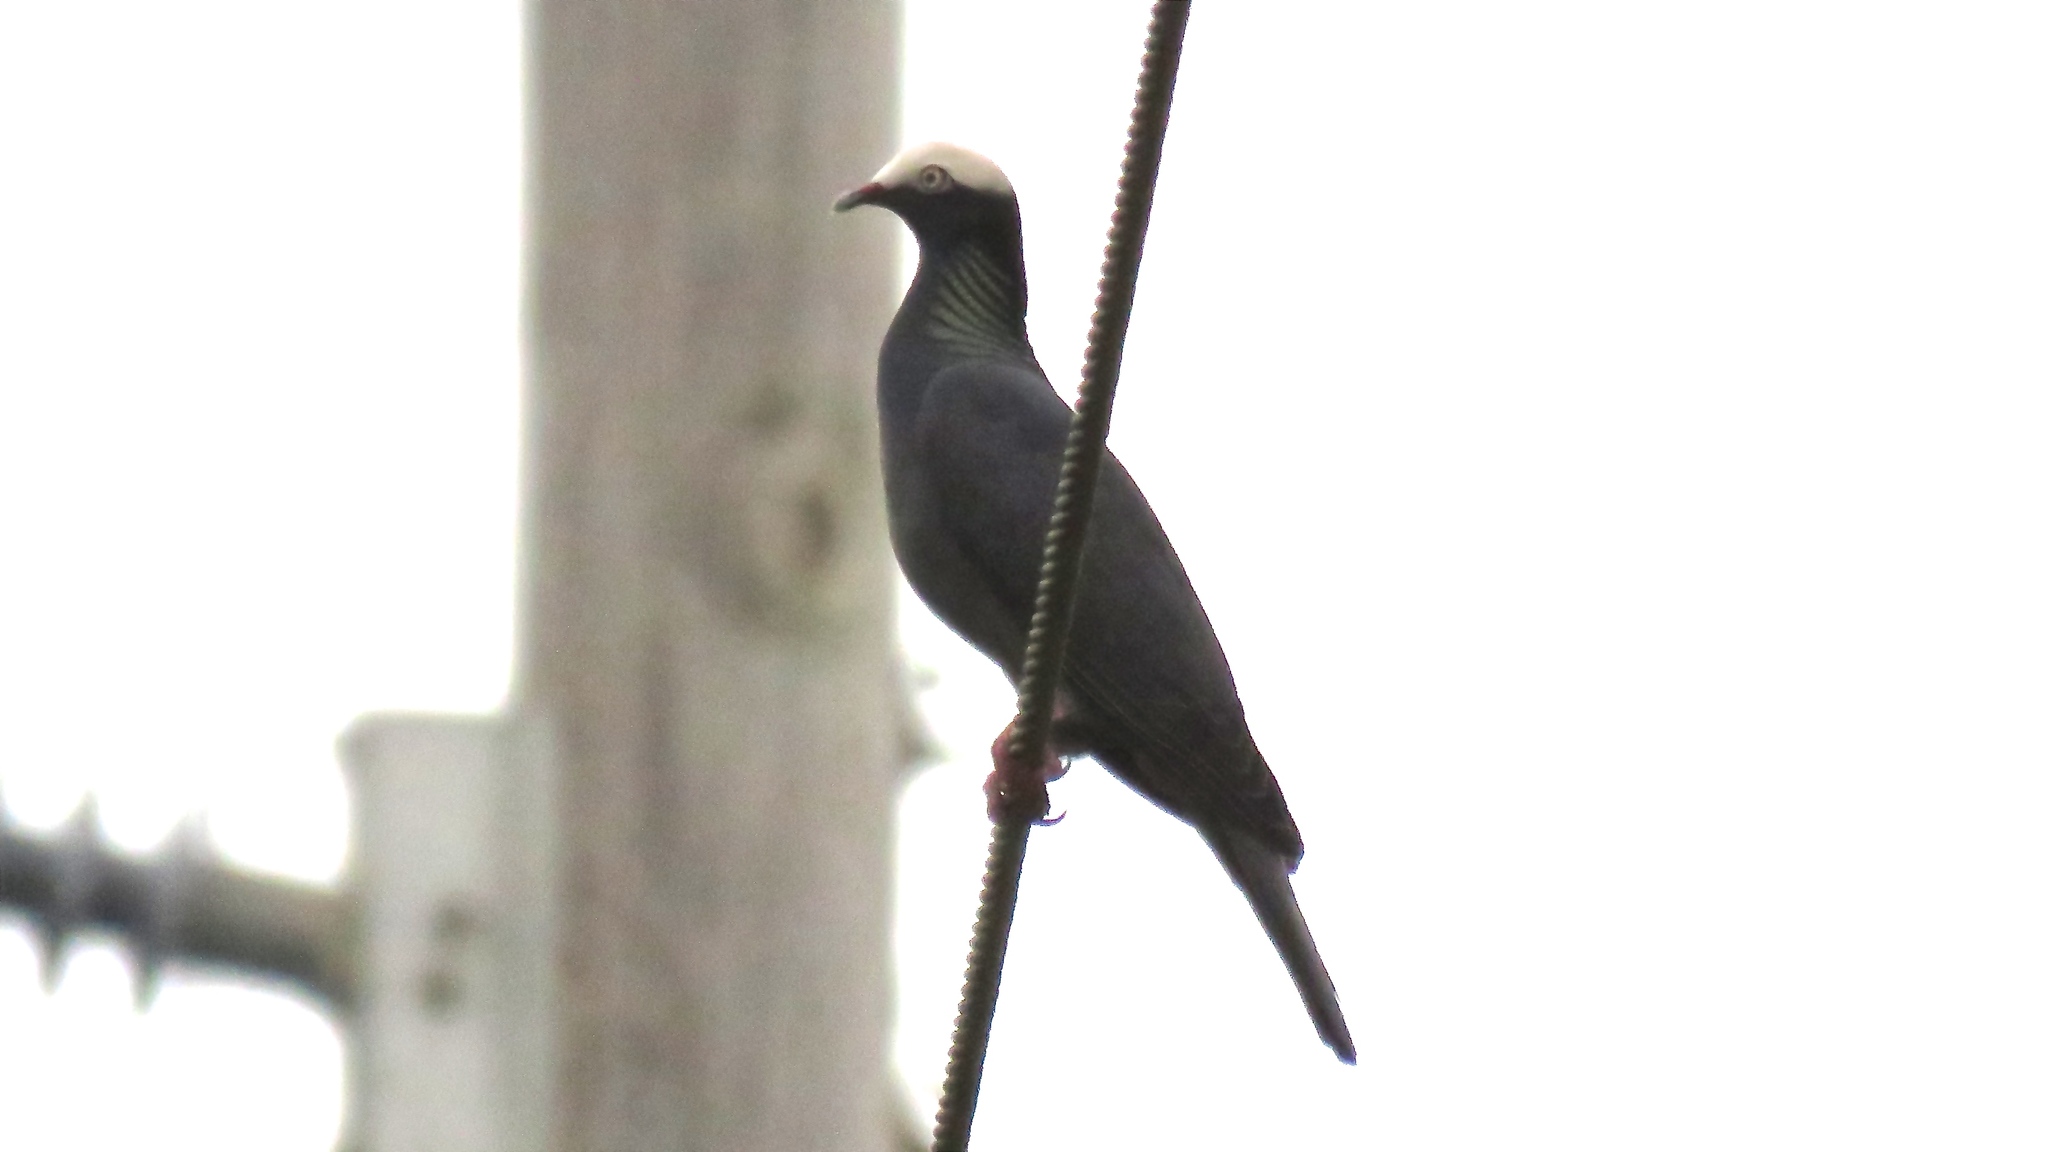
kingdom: Animalia
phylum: Chordata
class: Aves
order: Columbiformes
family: Columbidae
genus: Patagioenas
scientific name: Patagioenas leucocephala
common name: White-crowned pigeon
